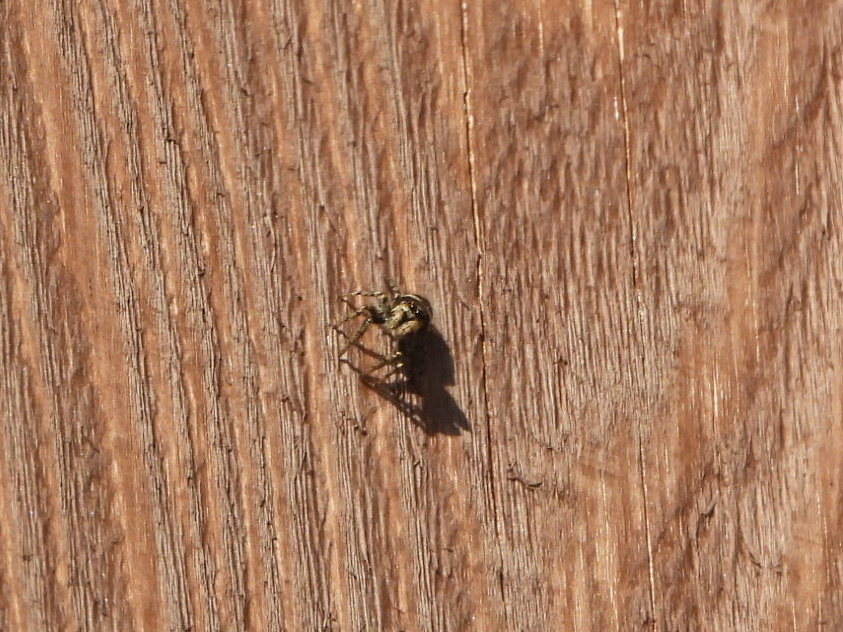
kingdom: Animalia
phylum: Arthropoda
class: Arachnida
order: Araneae
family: Salticidae
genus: Salticus
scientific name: Salticus scenicus
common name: Zebra jumper
